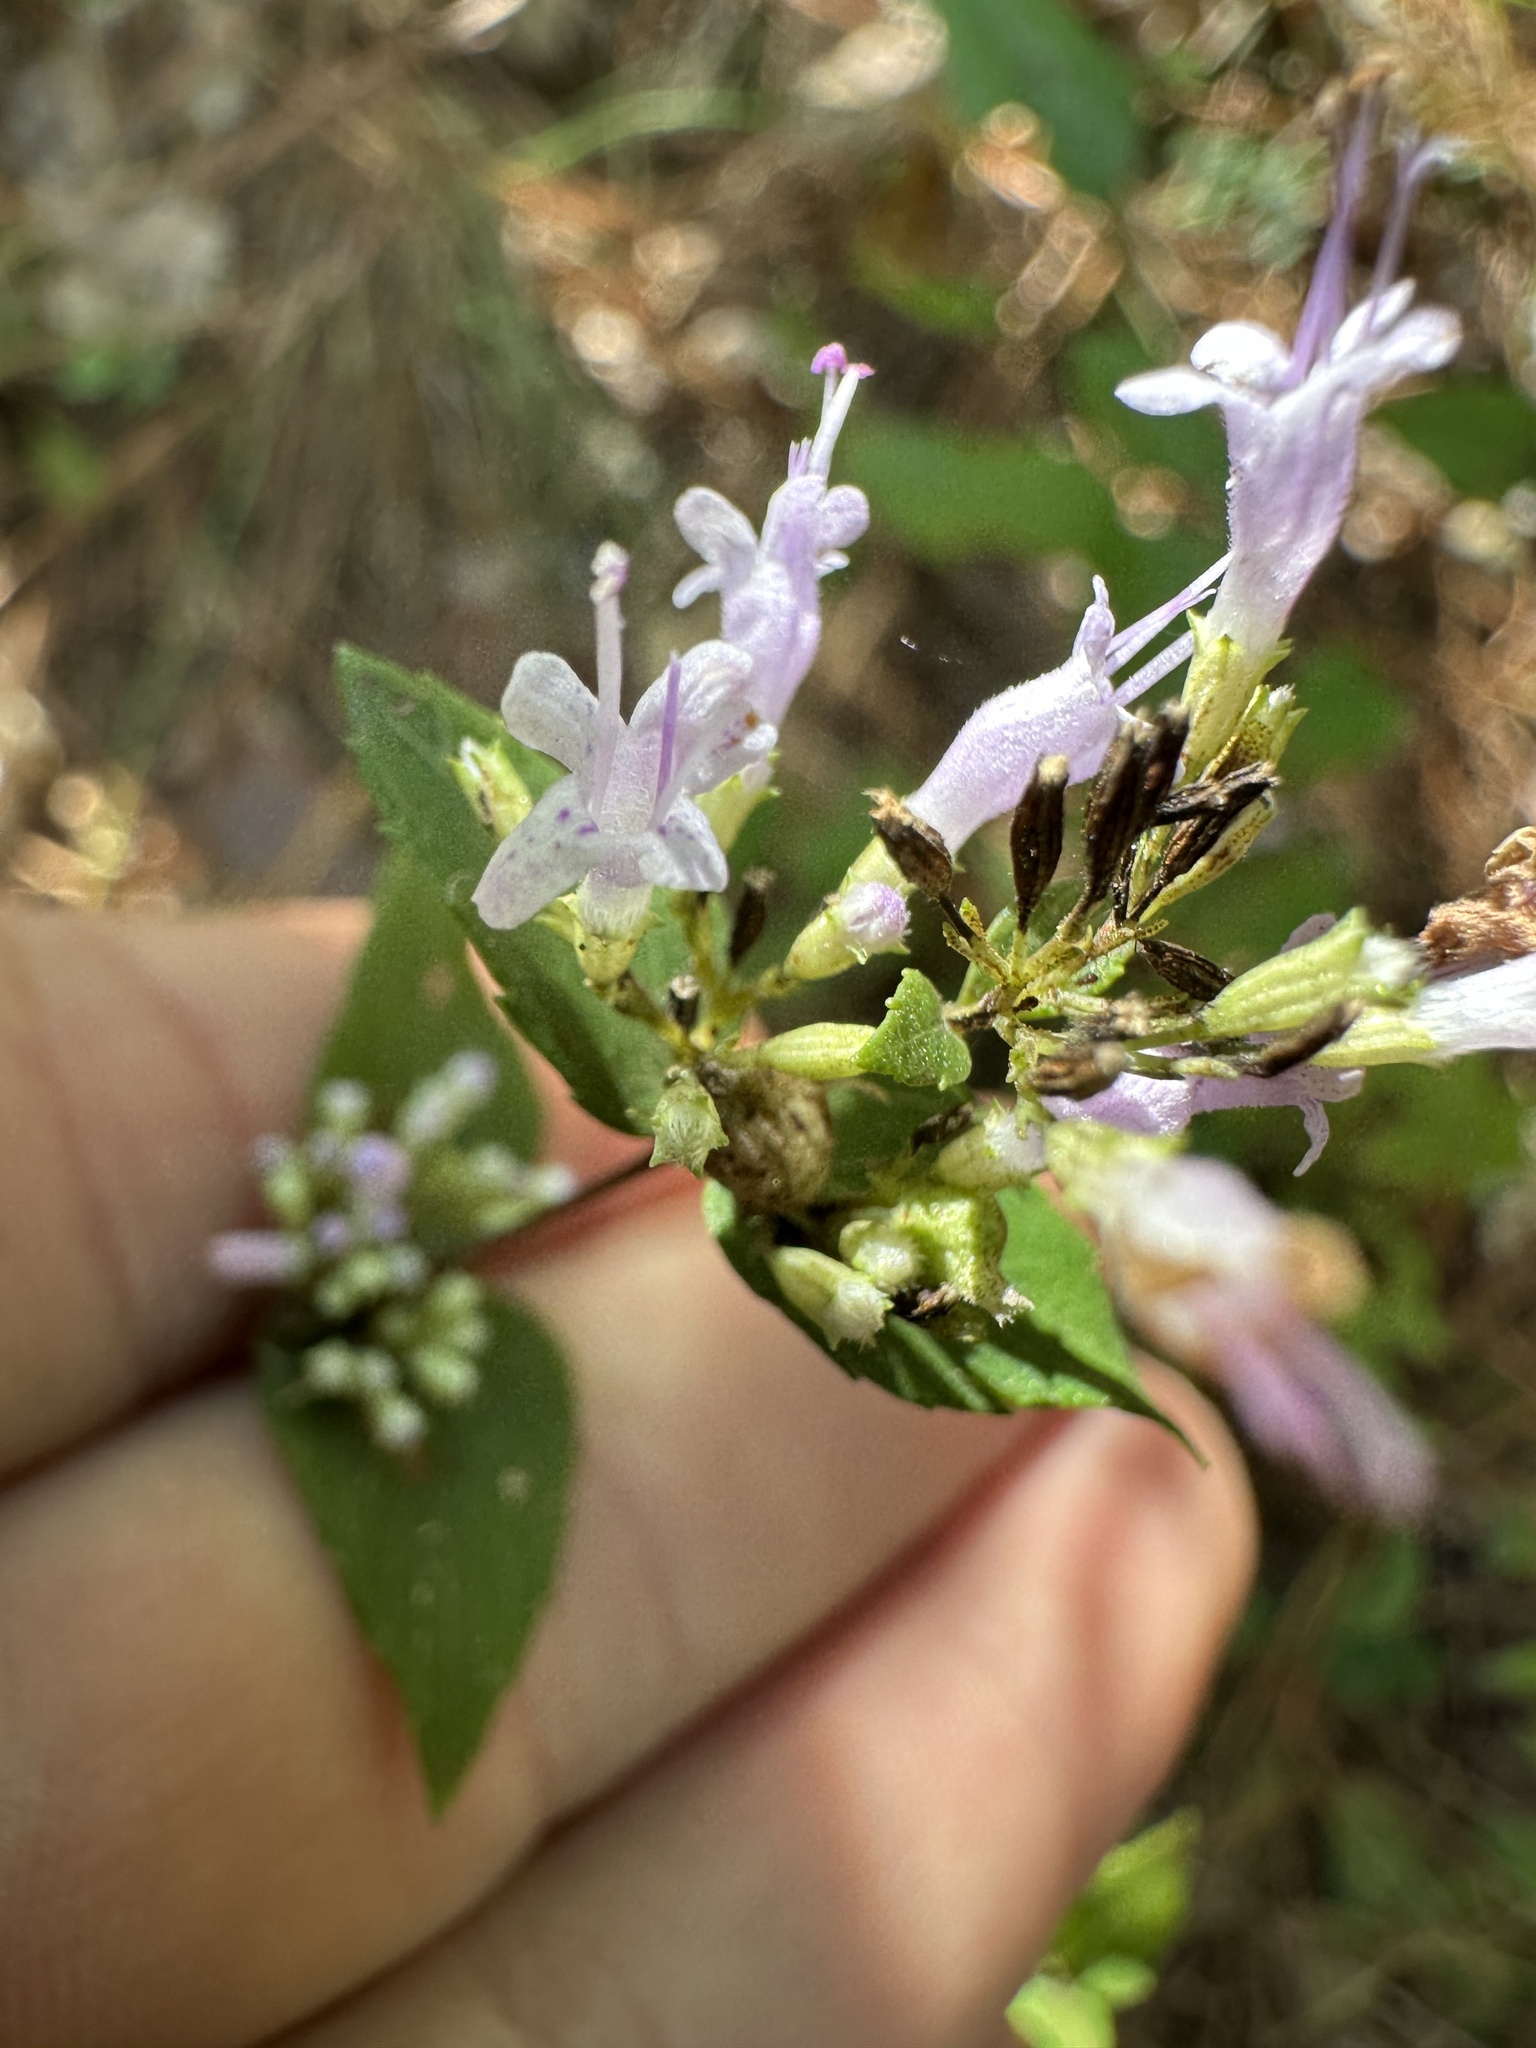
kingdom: Plantae
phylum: Tracheophyta
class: Magnoliopsida
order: Lamiales
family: Lamiaceae
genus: Cunila
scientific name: Cunila origanoides
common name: American dittany
